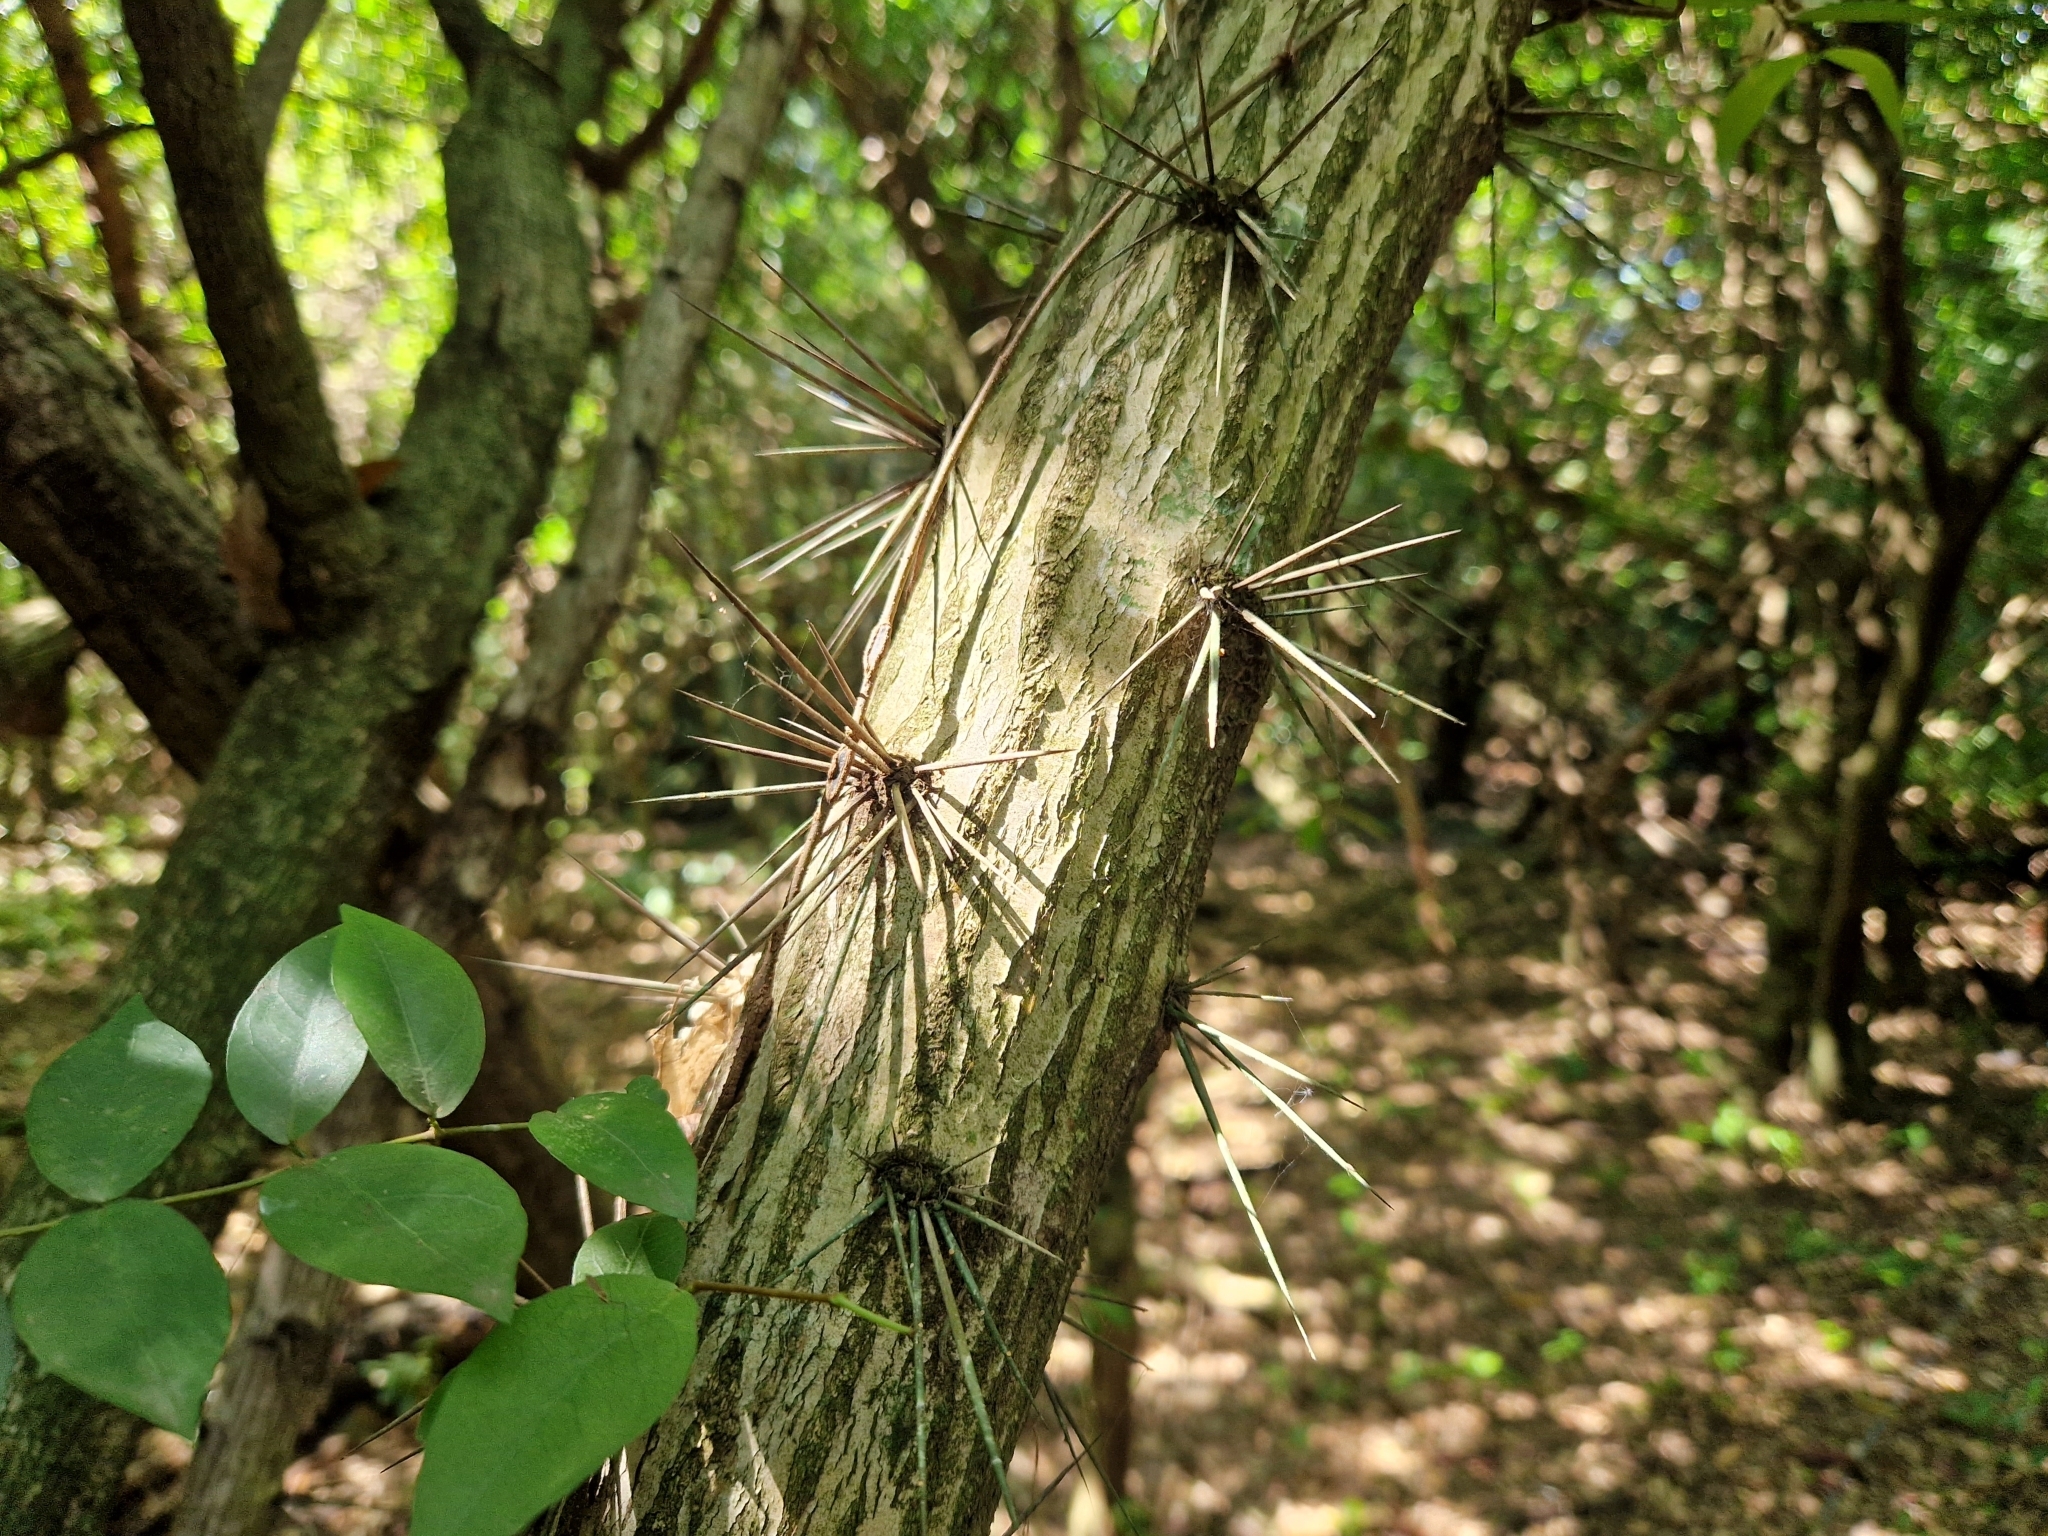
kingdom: Plantae
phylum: Tracheophyta
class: Magnoliopsida
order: Caryophyllales
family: Cactaceae
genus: Pereskia
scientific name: Pereskia nemorosa
